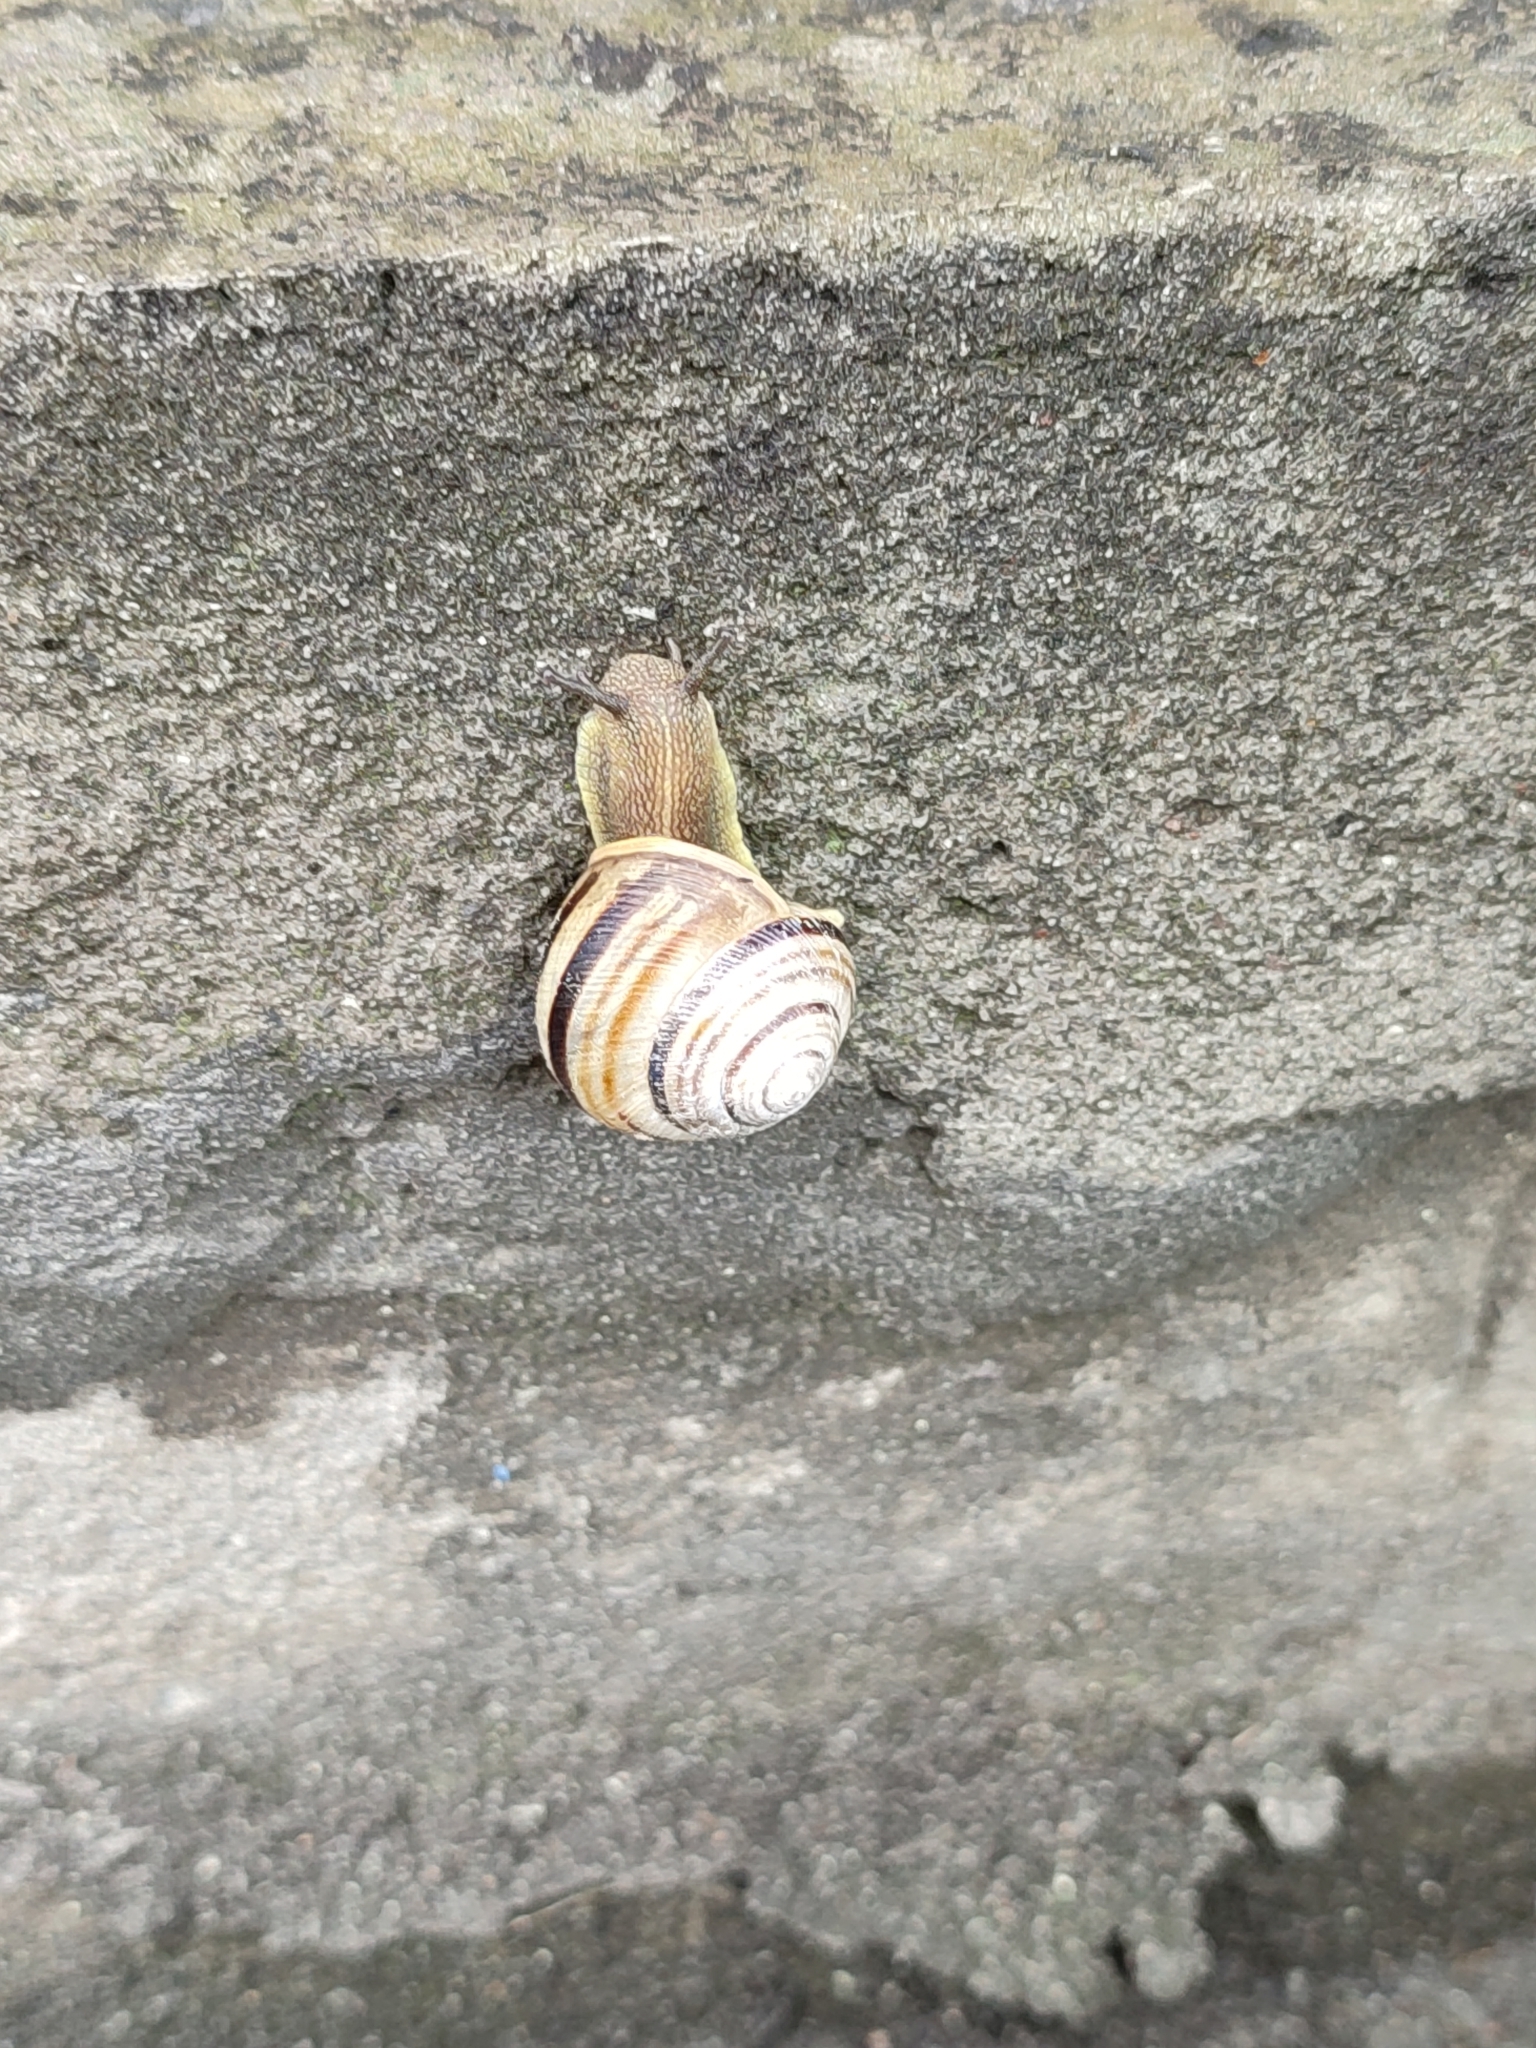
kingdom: Animalia
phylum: Mollusca
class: Gastropoda
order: Stylommatophora
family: Helicidae
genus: Caucasotachea
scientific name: Caucasotachea vindobonensis
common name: European helicid land snail
